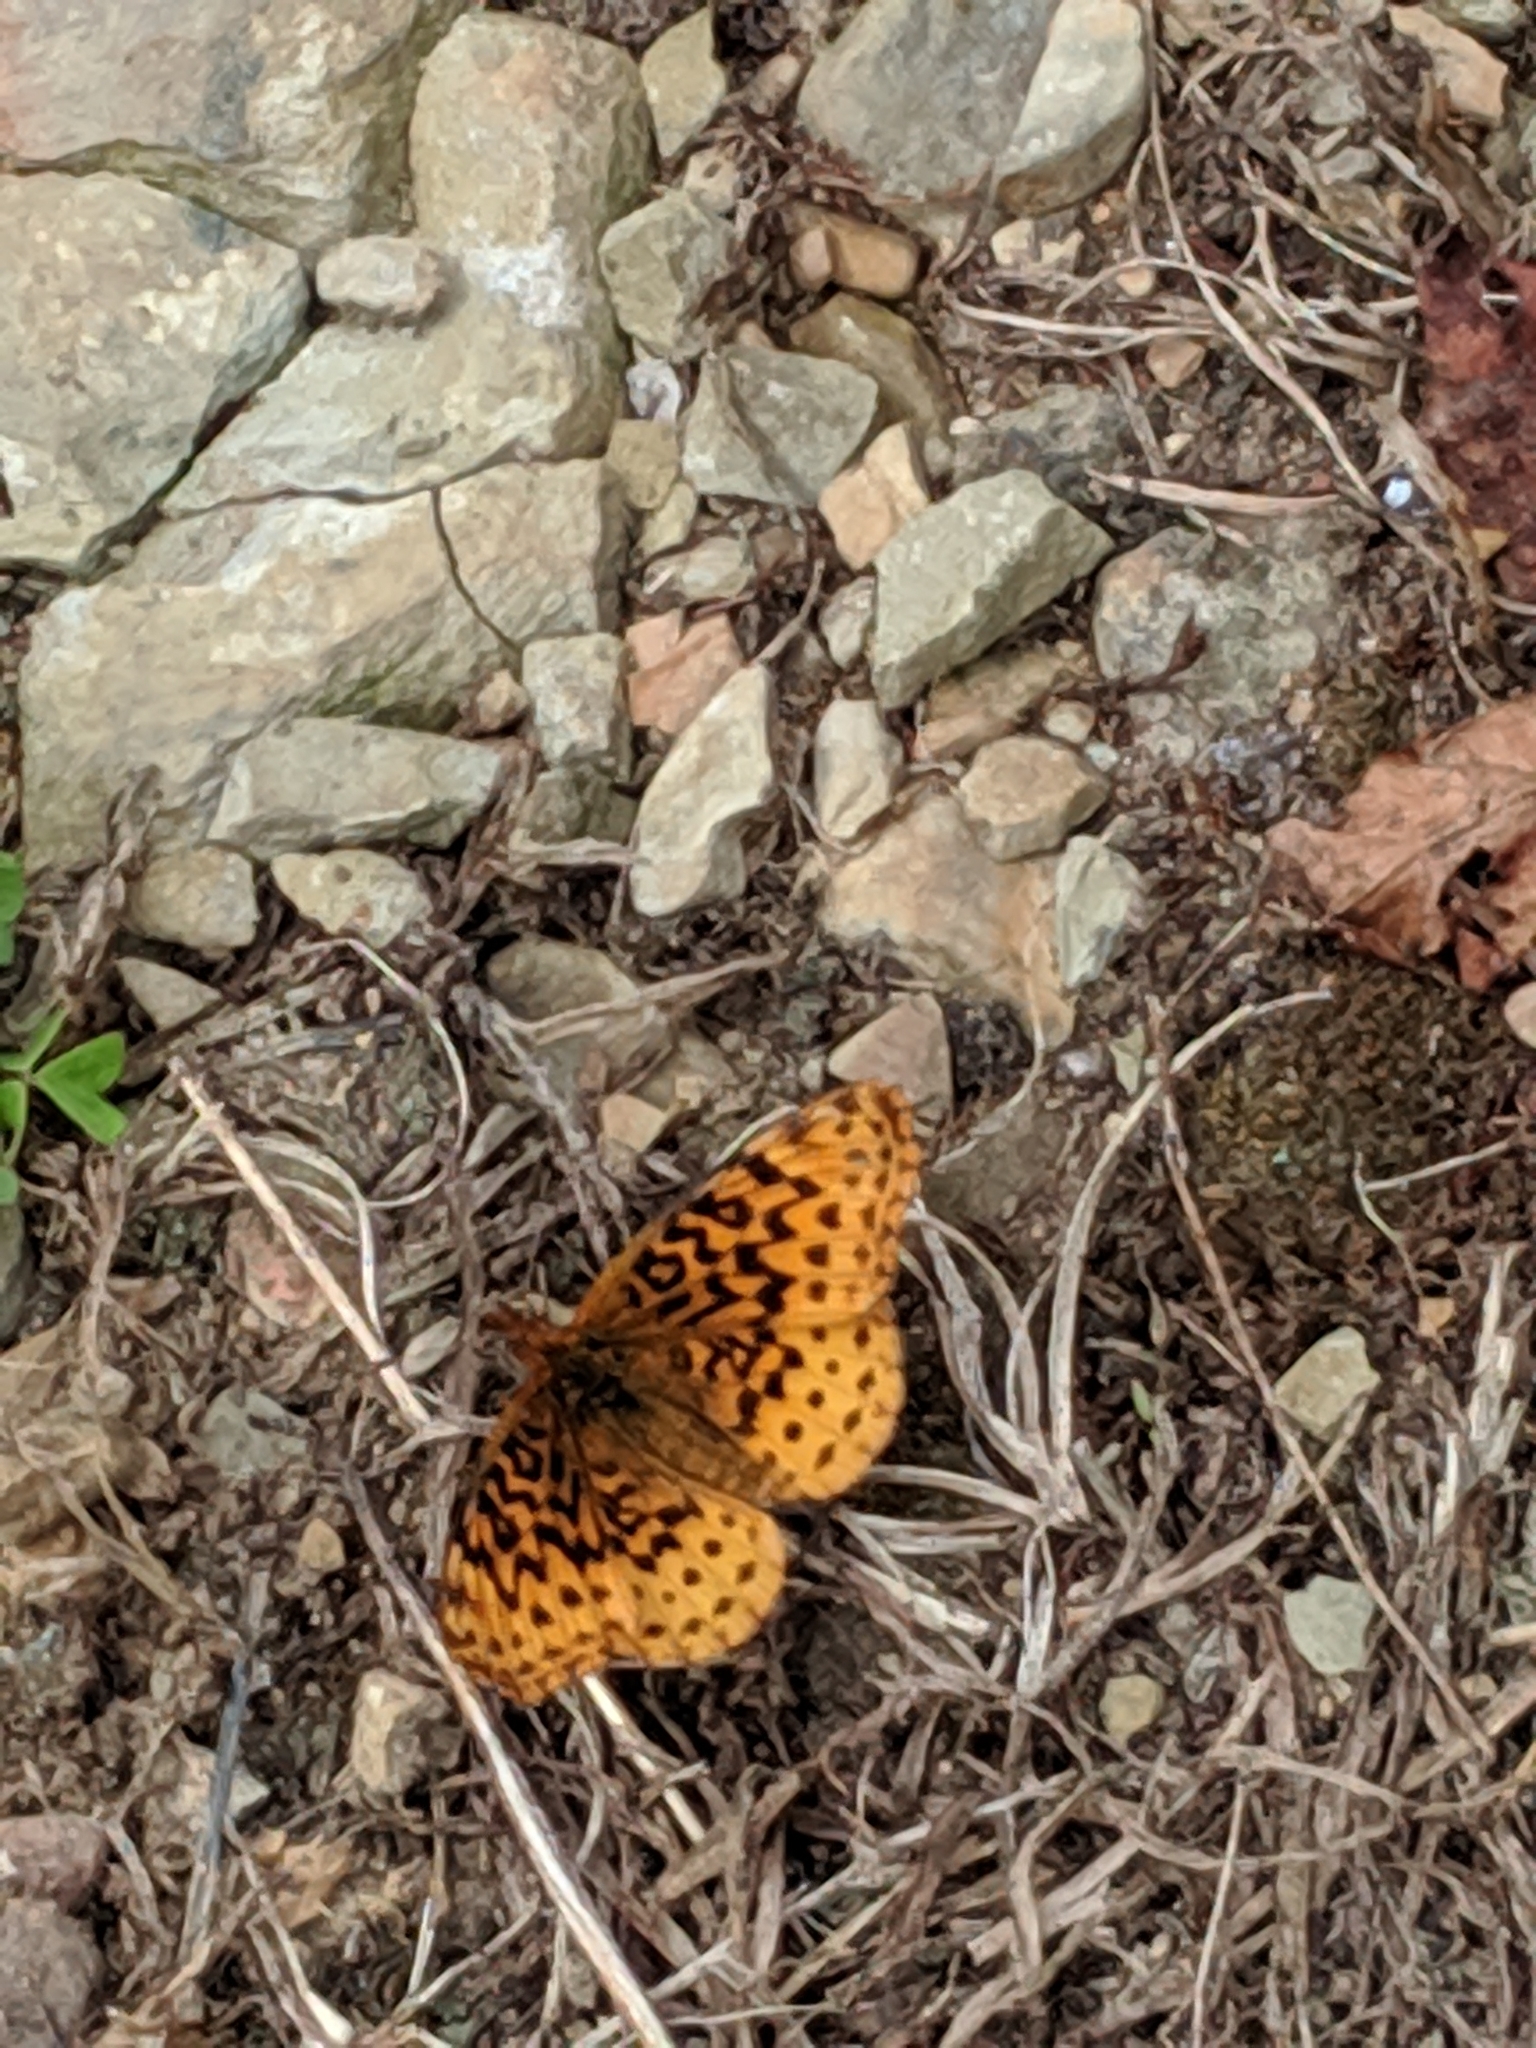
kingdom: Animalia
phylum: Arthropoda
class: Insecta
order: Lepidoptera
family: Nymphalidae
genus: Clossiana
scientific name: Clossiana toddi
